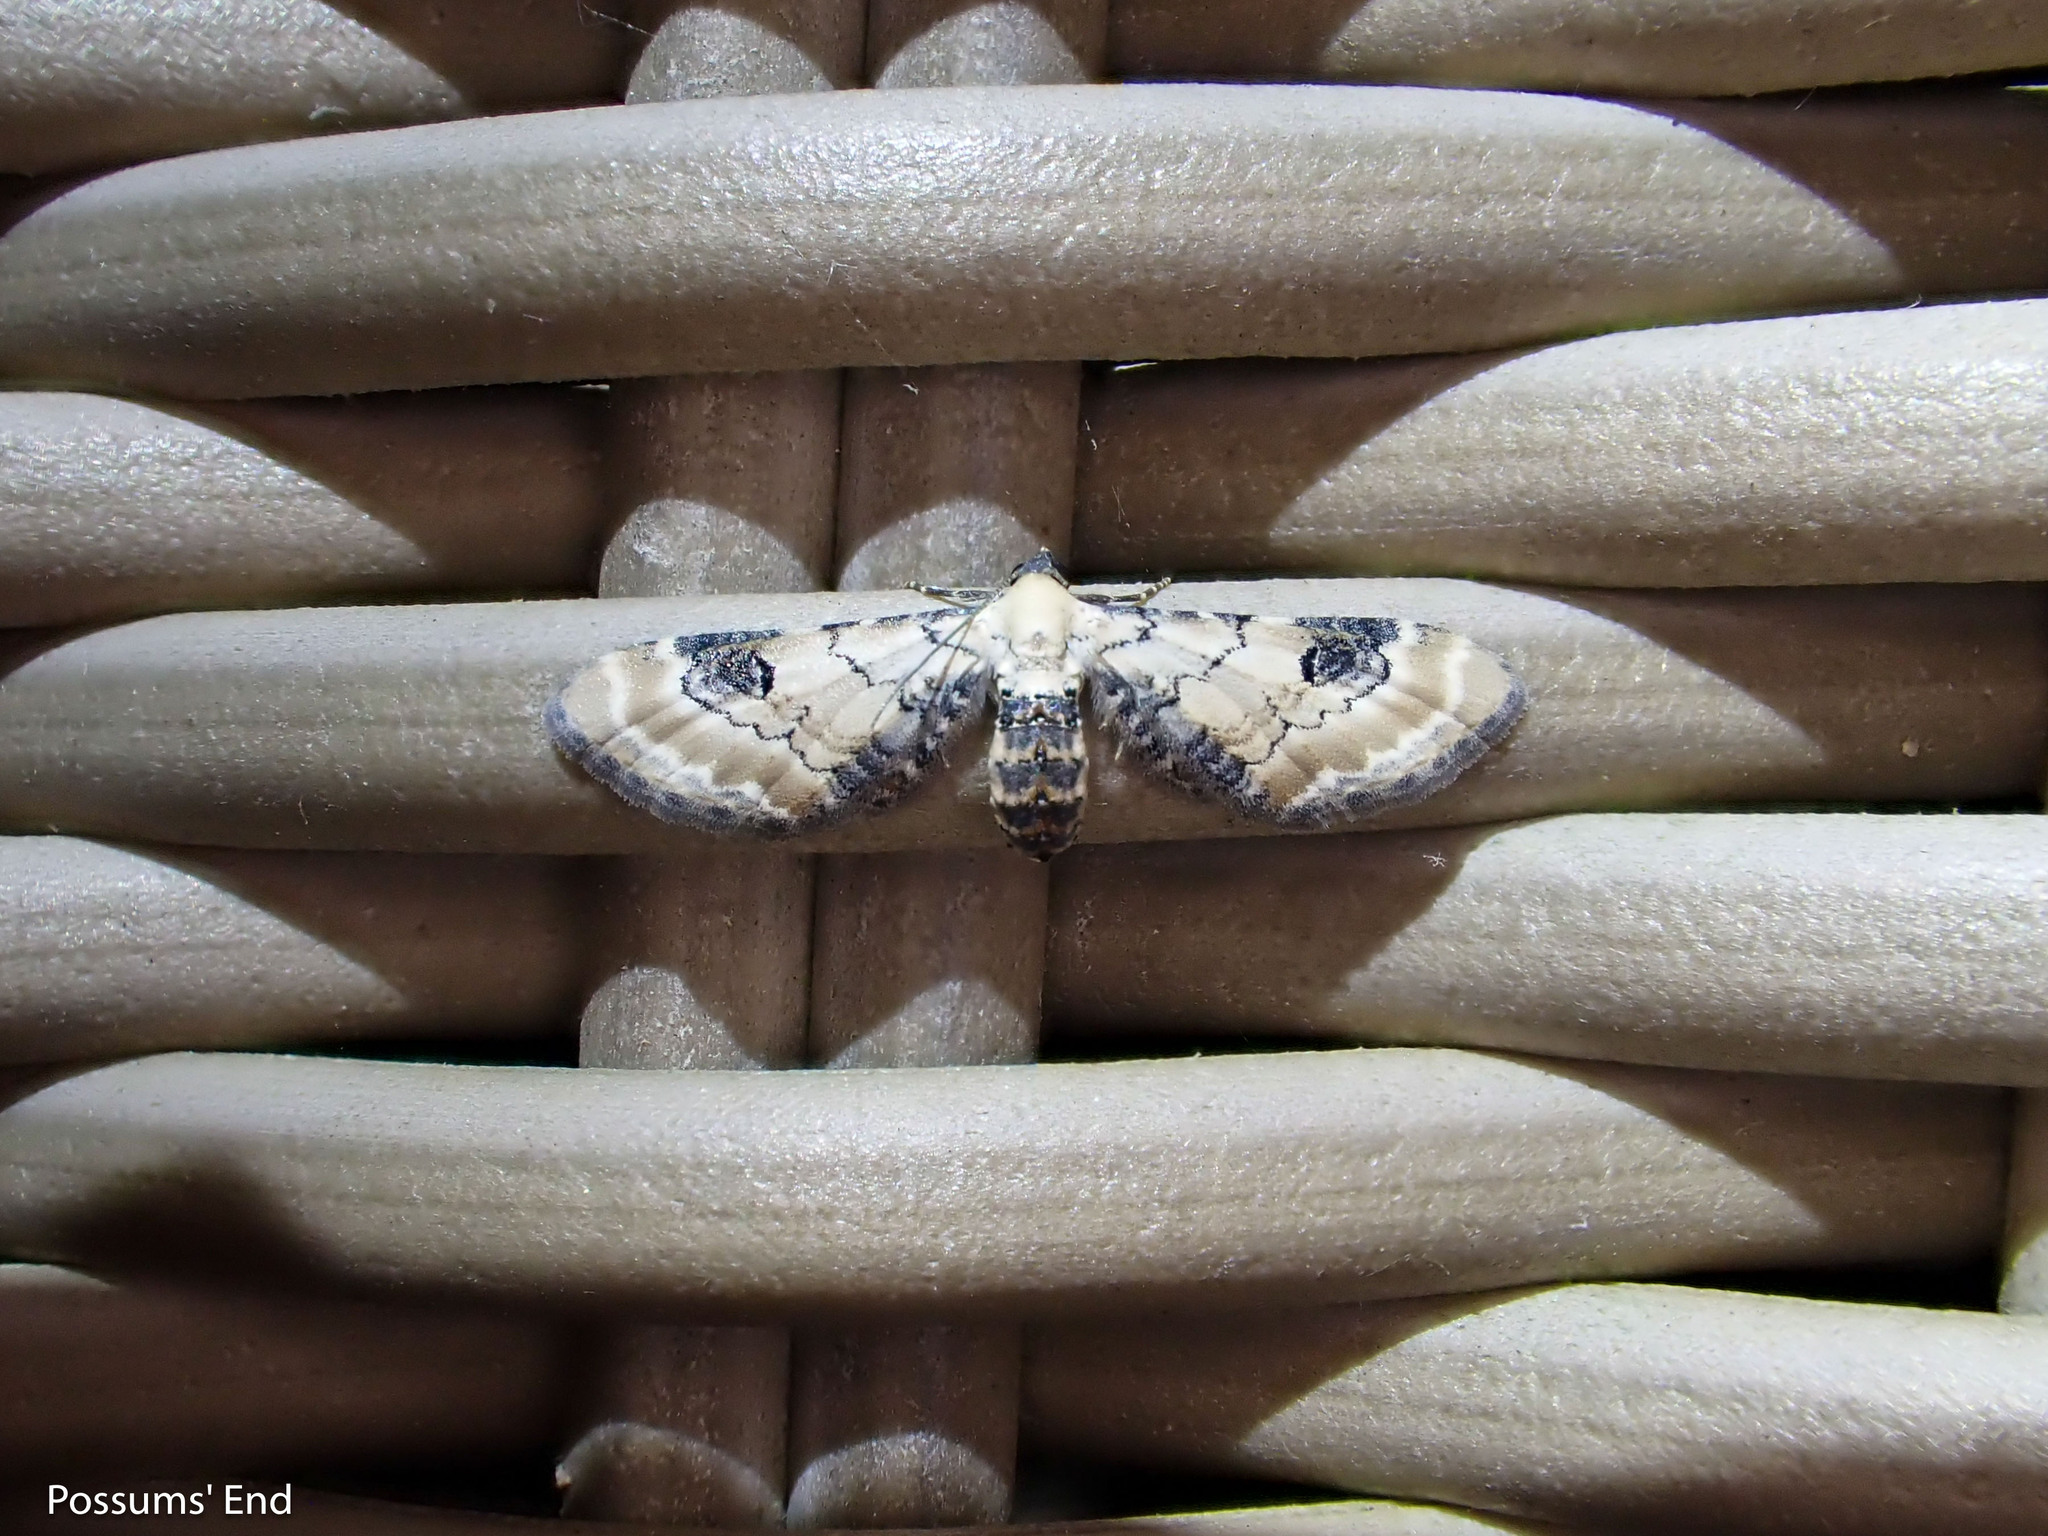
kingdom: Animalia
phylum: Arthropoda
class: Insecta
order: Lepidoptera
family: Geometridae
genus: Eupithecia
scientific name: Eupithecia centaureata
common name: Lime-speck pug
